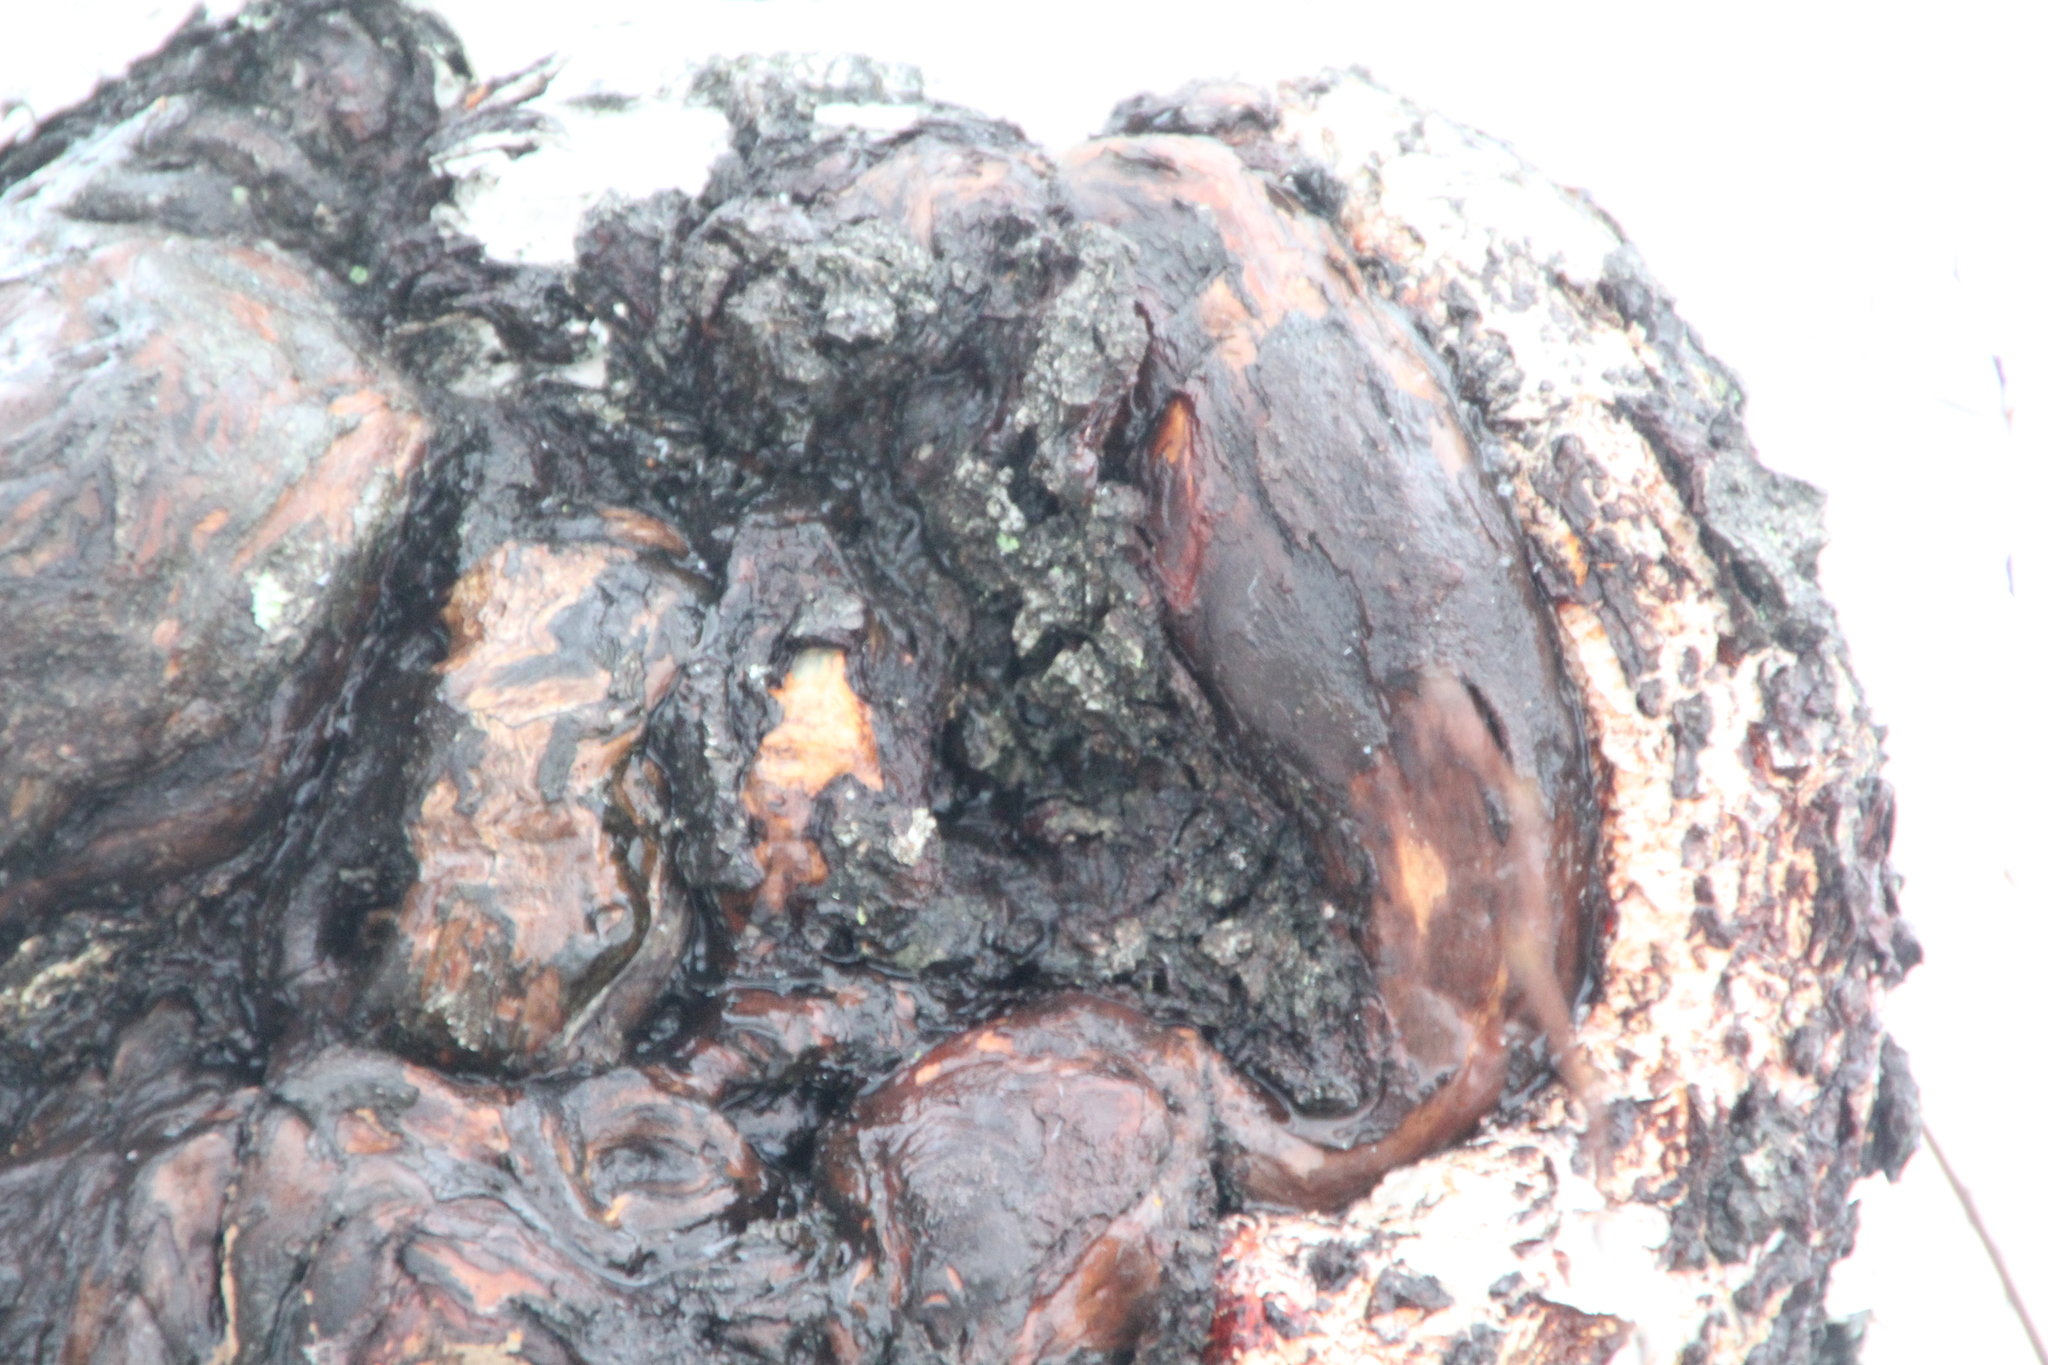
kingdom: Bacteria
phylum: Proteobacteria
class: Alphaproteobacteria
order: Rhizobiales
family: Rhizobiaceae
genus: Rhizobium
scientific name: Rhizobium Agrobacterium radiobacter
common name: Bacterial crown gall
